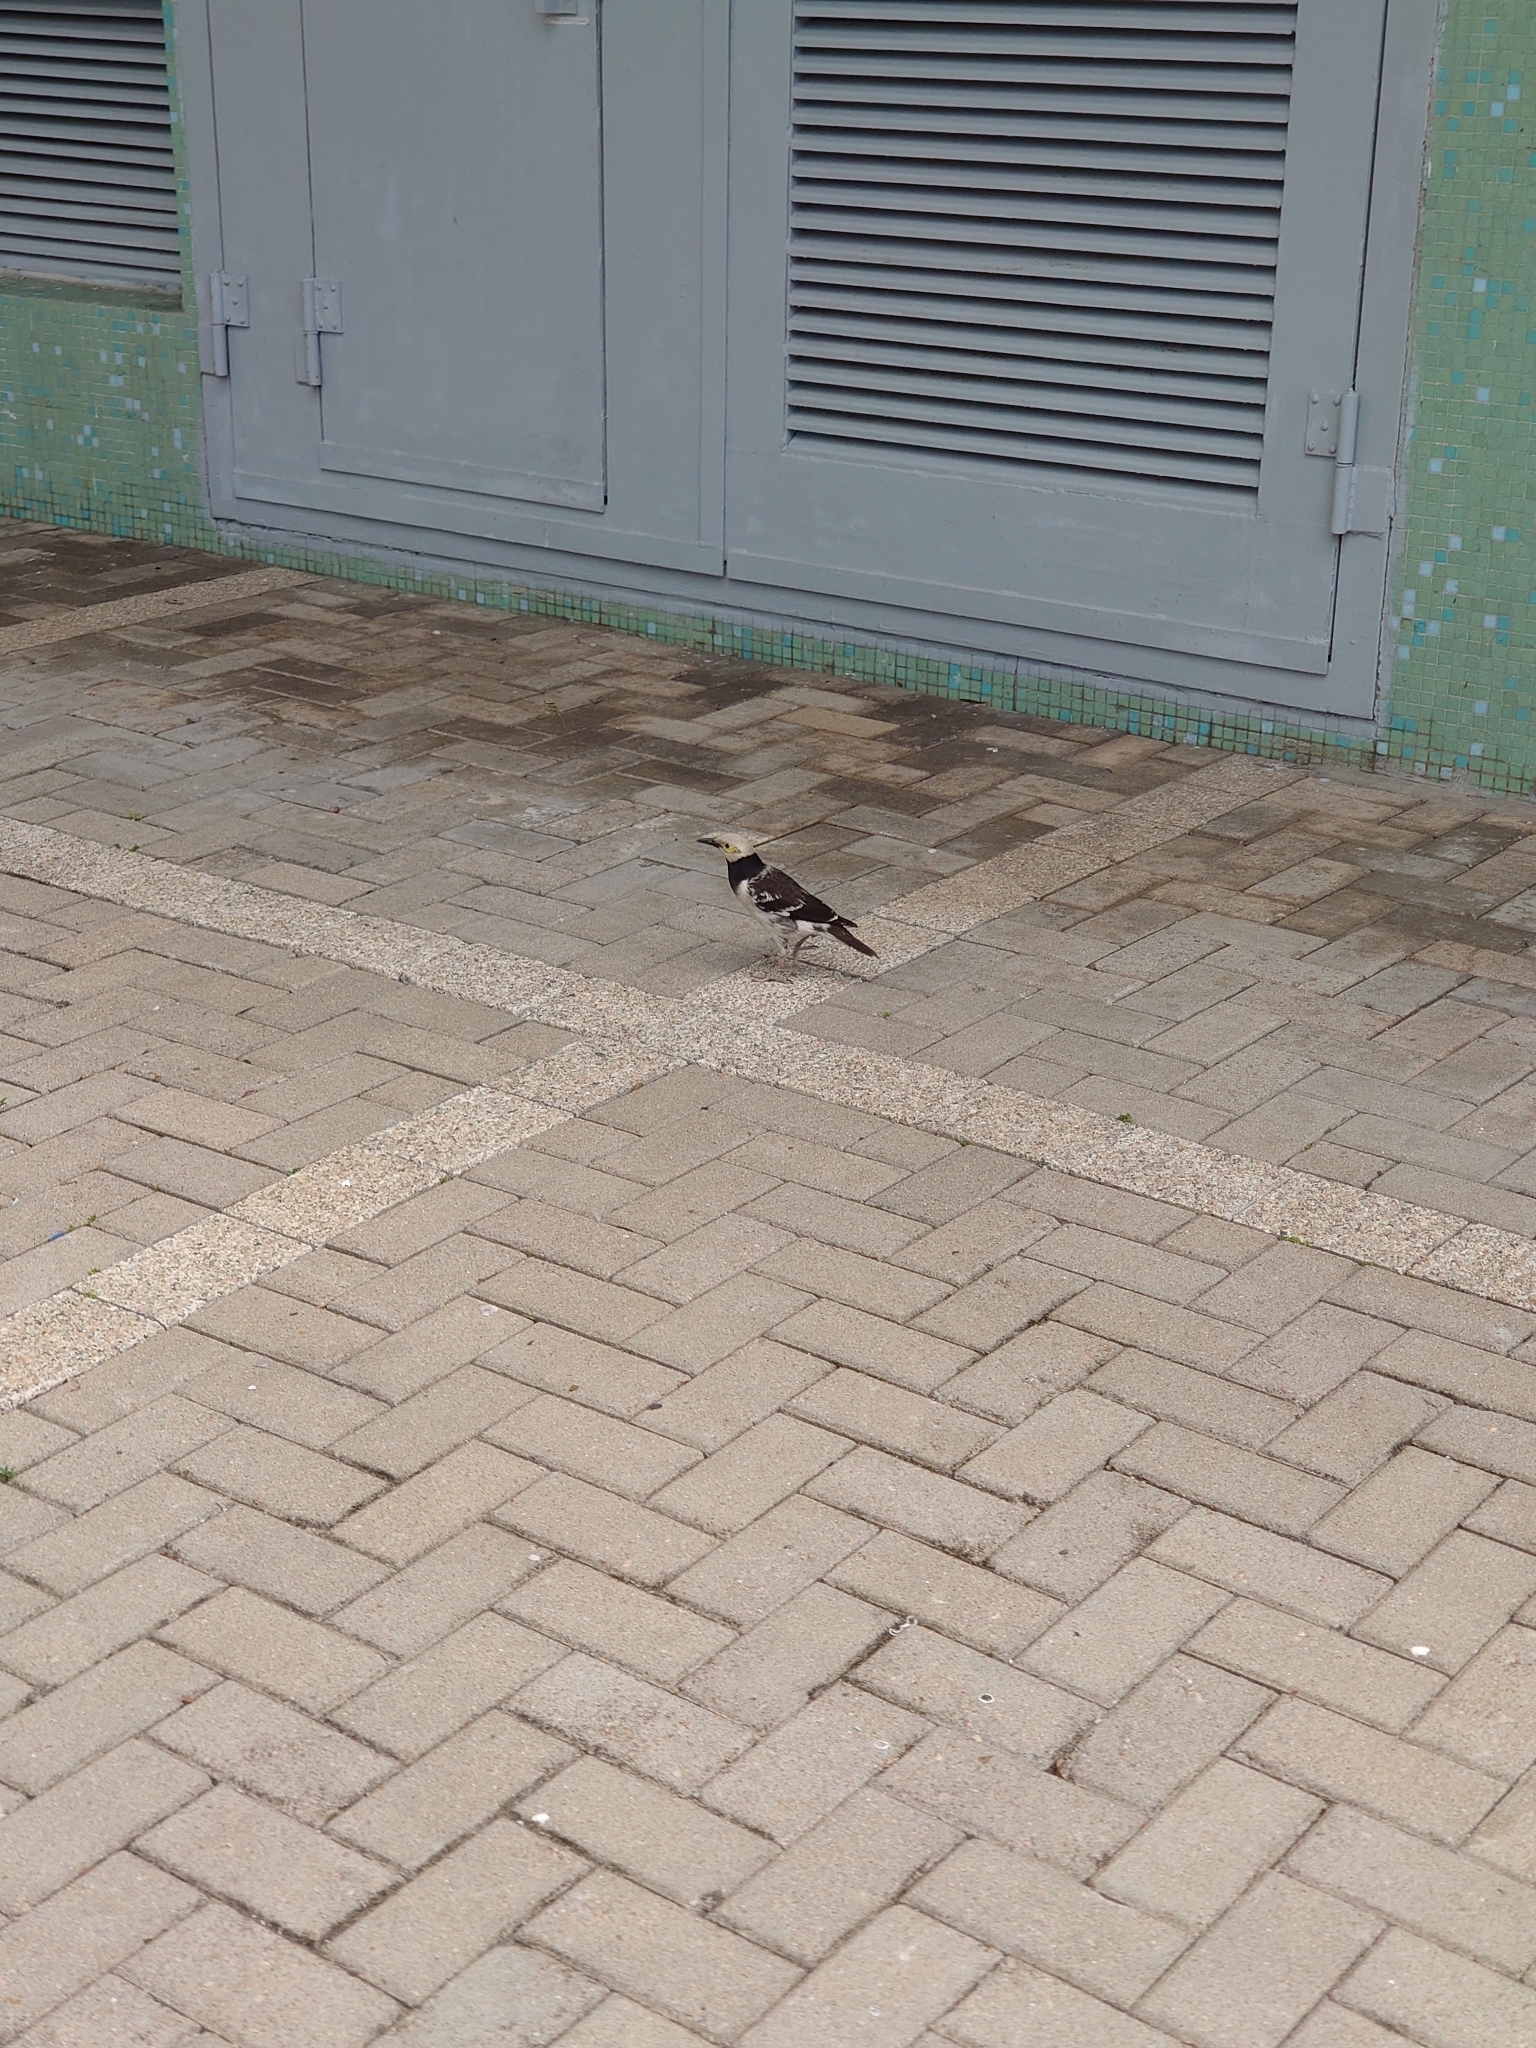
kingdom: Animalia
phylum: Chordata
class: Aves
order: Passeriformes
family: Sturnidae
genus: Gracupica
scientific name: Gracupica nigricollis
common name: Black-collared starling
